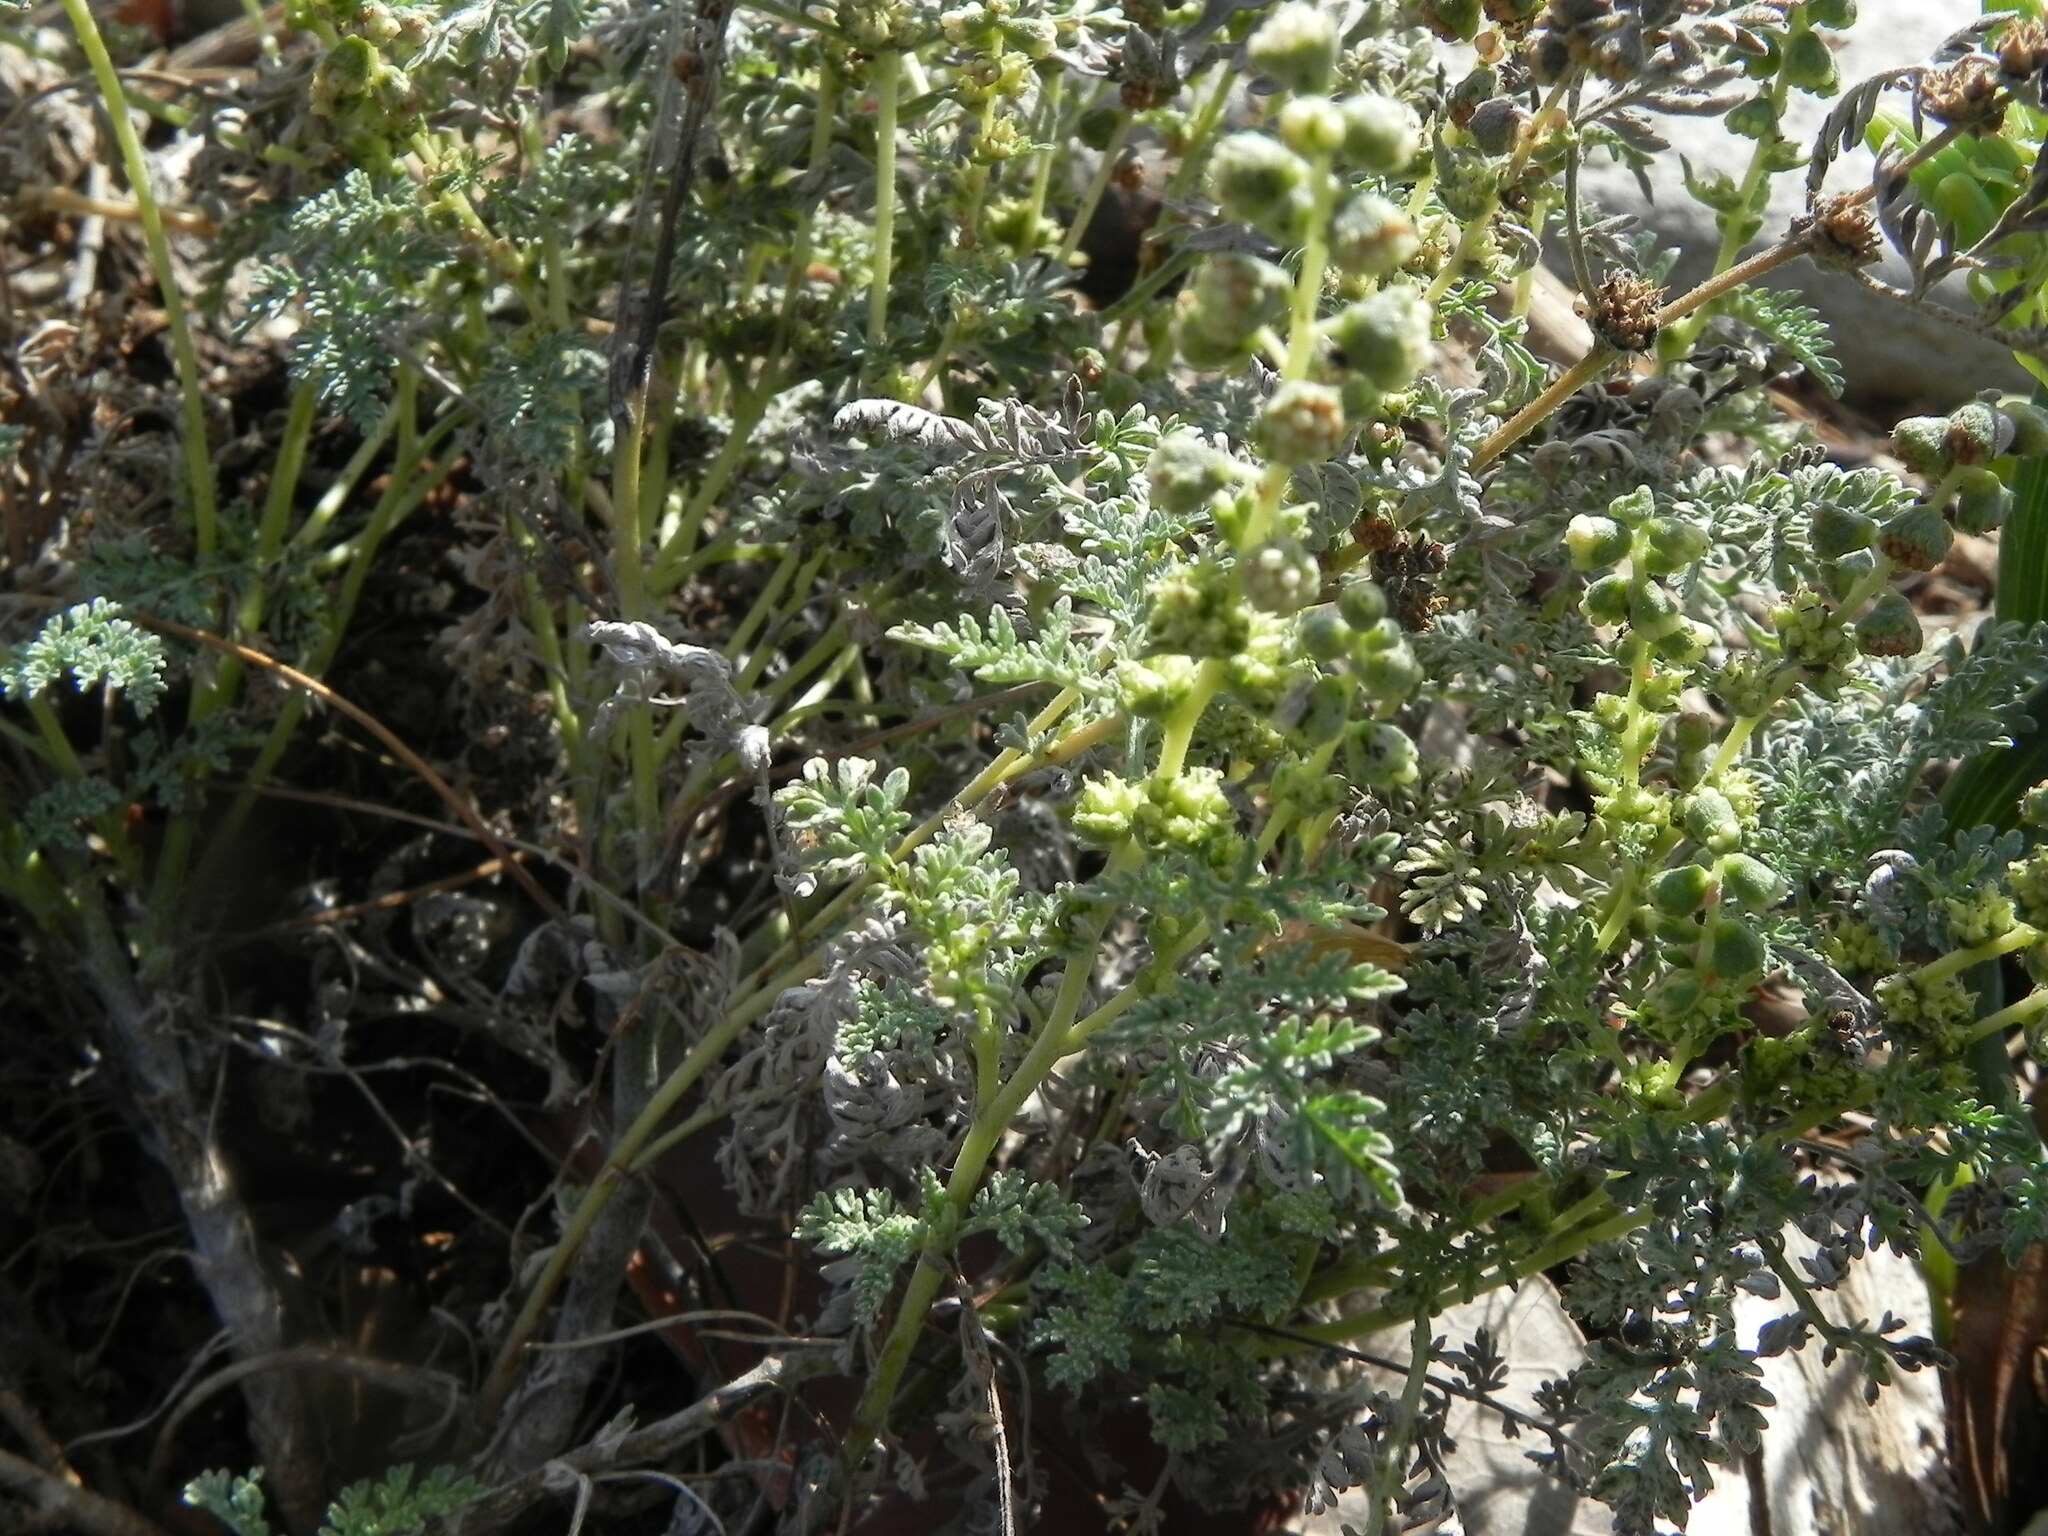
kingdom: Plantae
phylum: Tracheophyta
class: Magnoliopsida
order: Asterales
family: Asteraceae
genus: Ambrosia
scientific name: Ambrosia pumila
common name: San diego ambrosia
